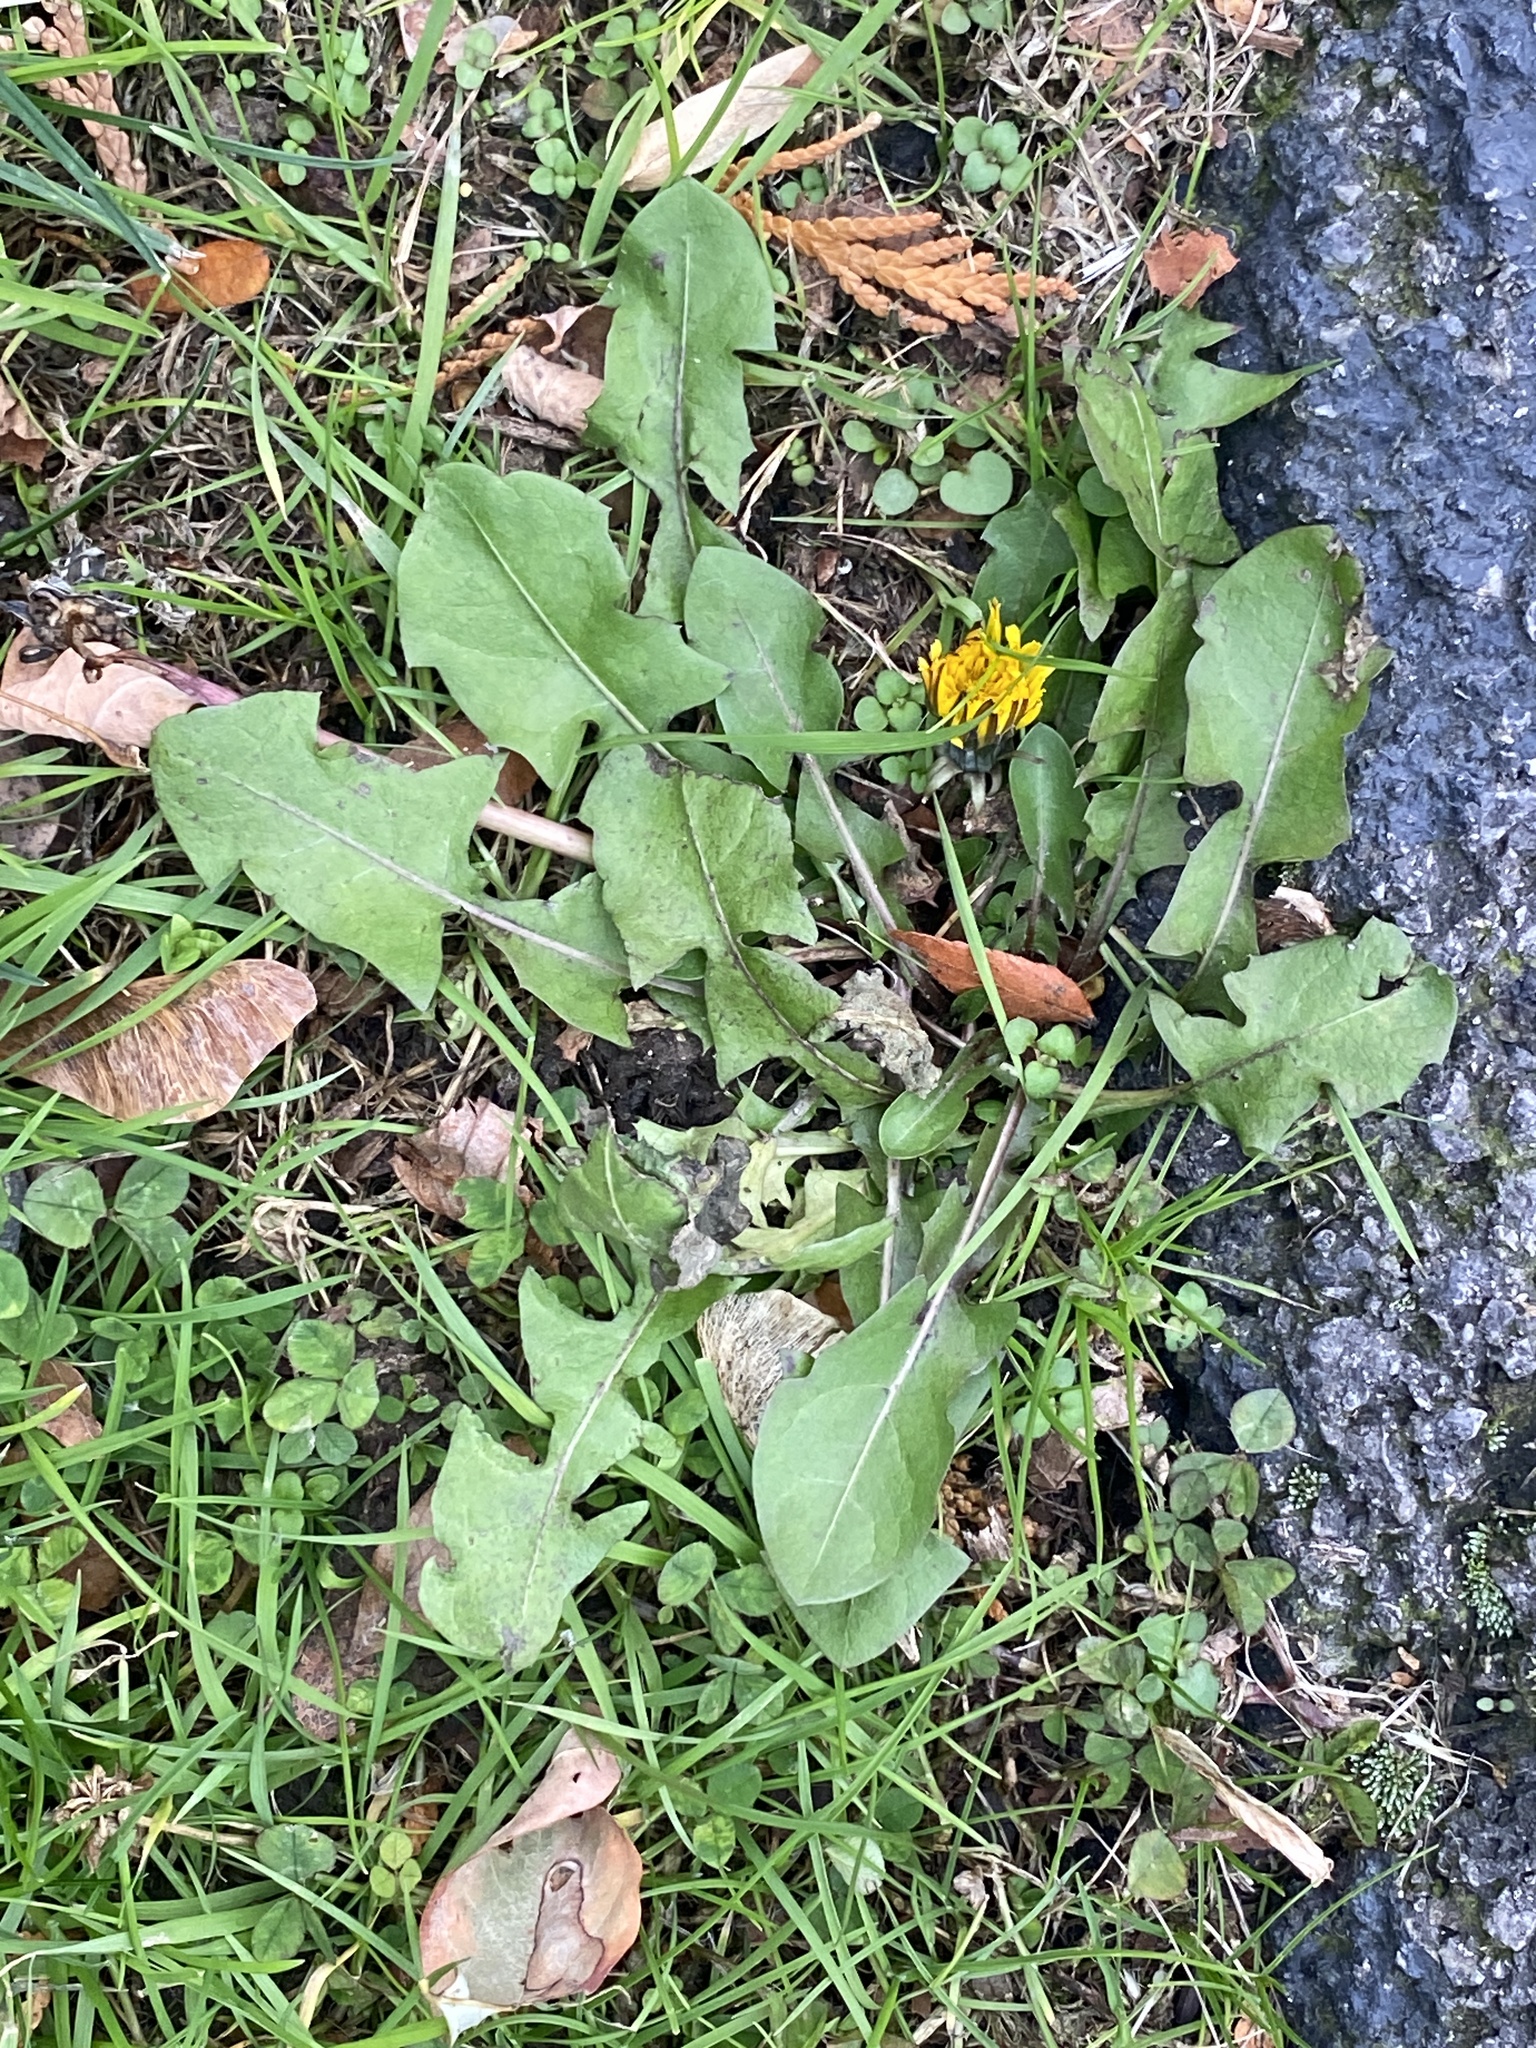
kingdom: Plantae
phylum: Tracheophyta
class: Magnoliopsida
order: Asterales
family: Asteraceae
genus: Taraxacum
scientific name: Taraxacum officinale
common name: Common dandelion
